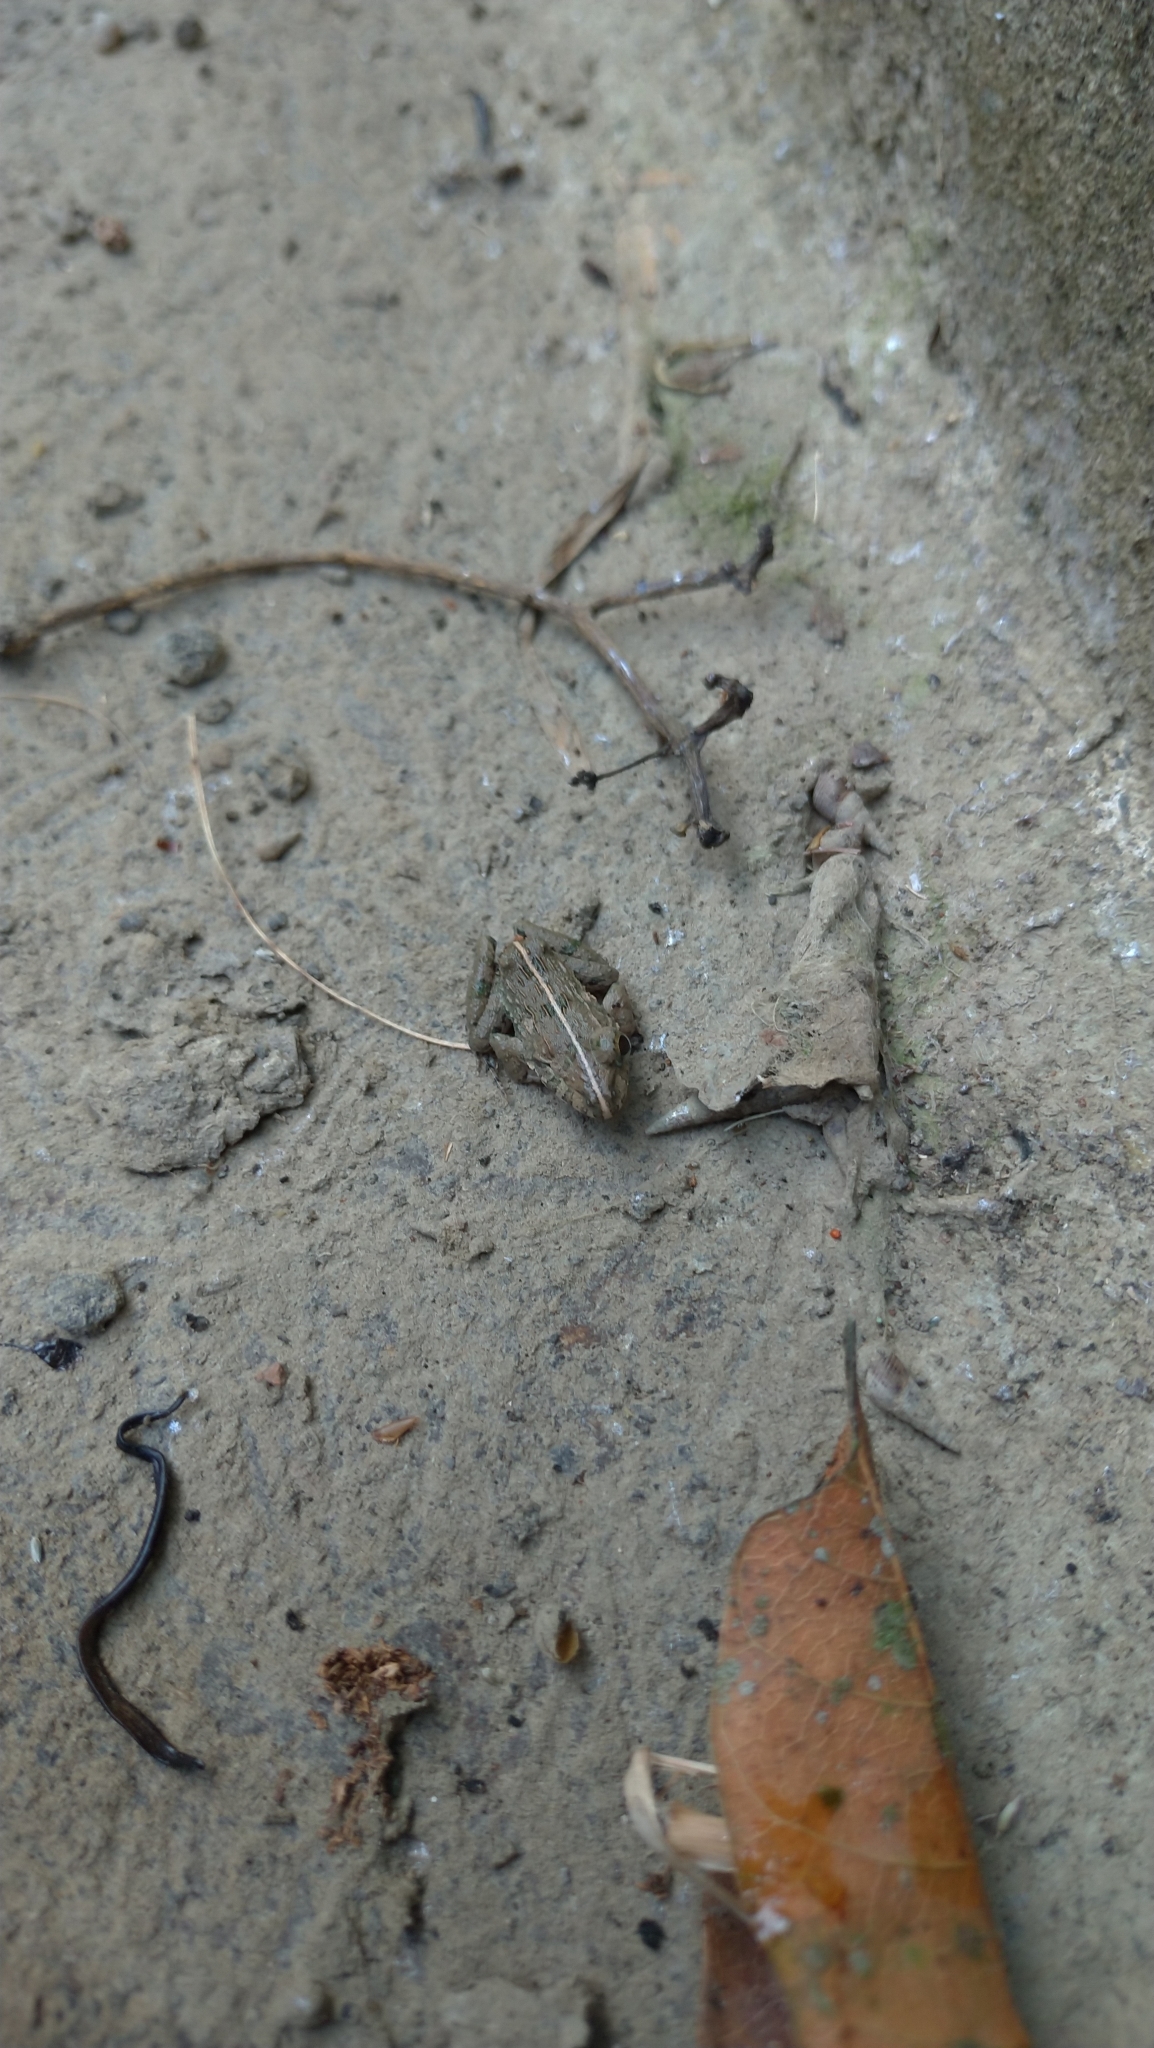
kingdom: Animalia
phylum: Chordata
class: Amphibia
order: Anura
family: Dicroglossidae
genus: Fejervarya
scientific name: Fejervarya limnocharis
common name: Asian grass frog/common pond frog/field frog/grass frog/indian rice frog
